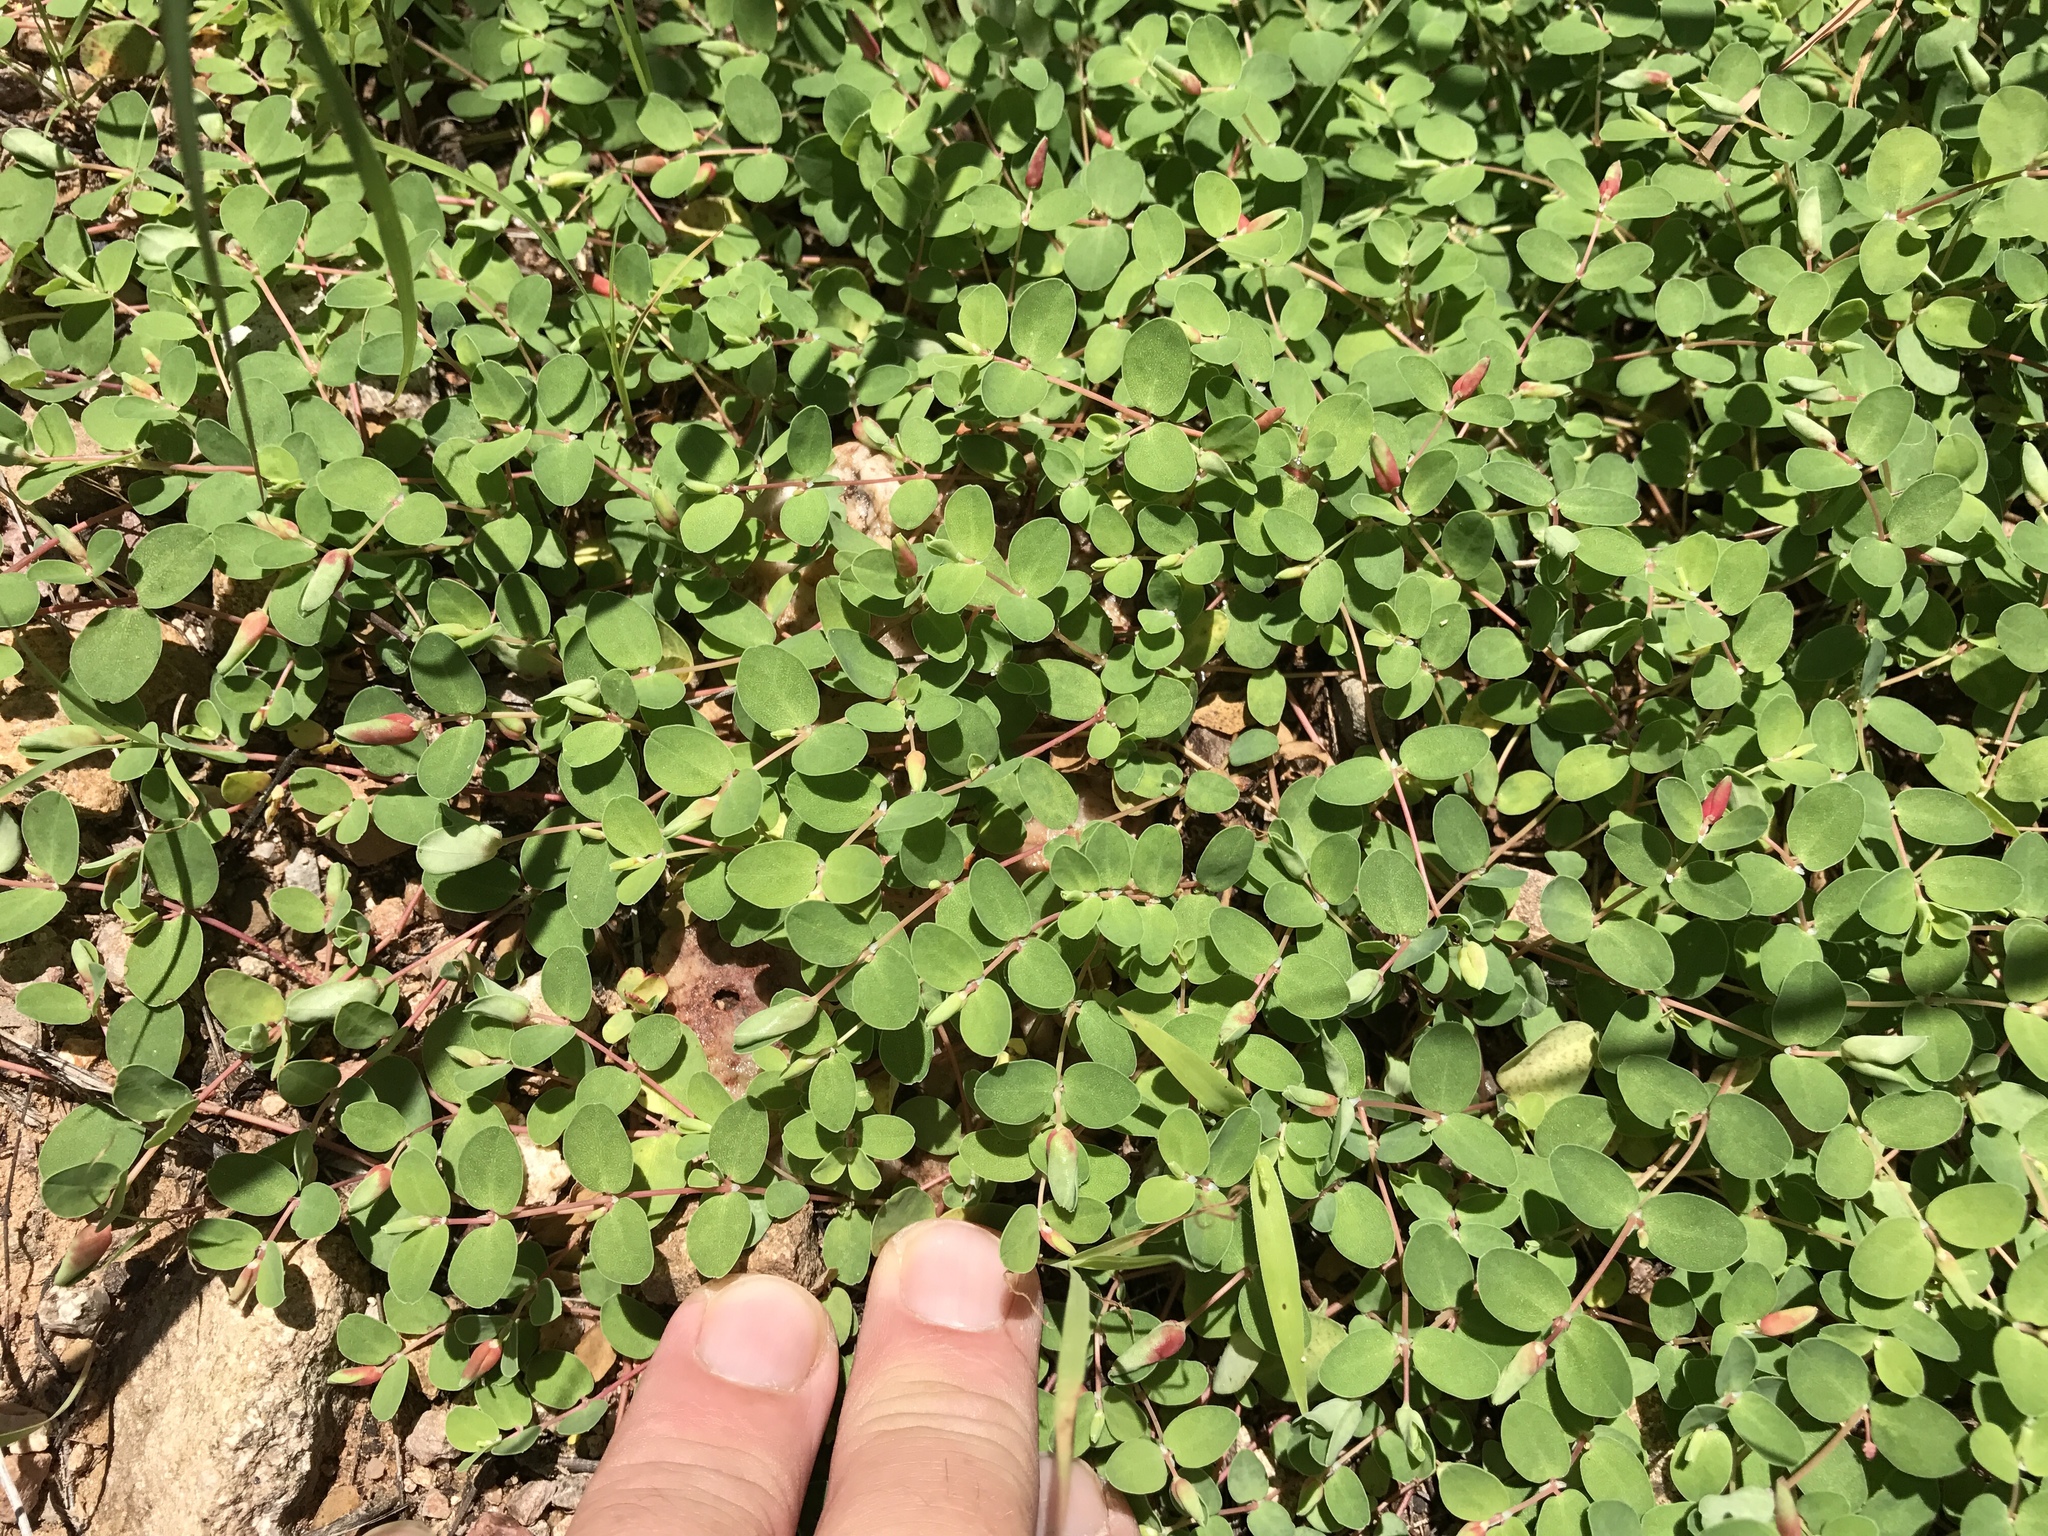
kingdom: Plantae
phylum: Tracheophyta
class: Magnoliopsida
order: Malpighiales
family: Euphorbiaceae
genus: Euphorbia
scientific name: Euphorbia albomarginata
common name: Whitemargin sandmat
